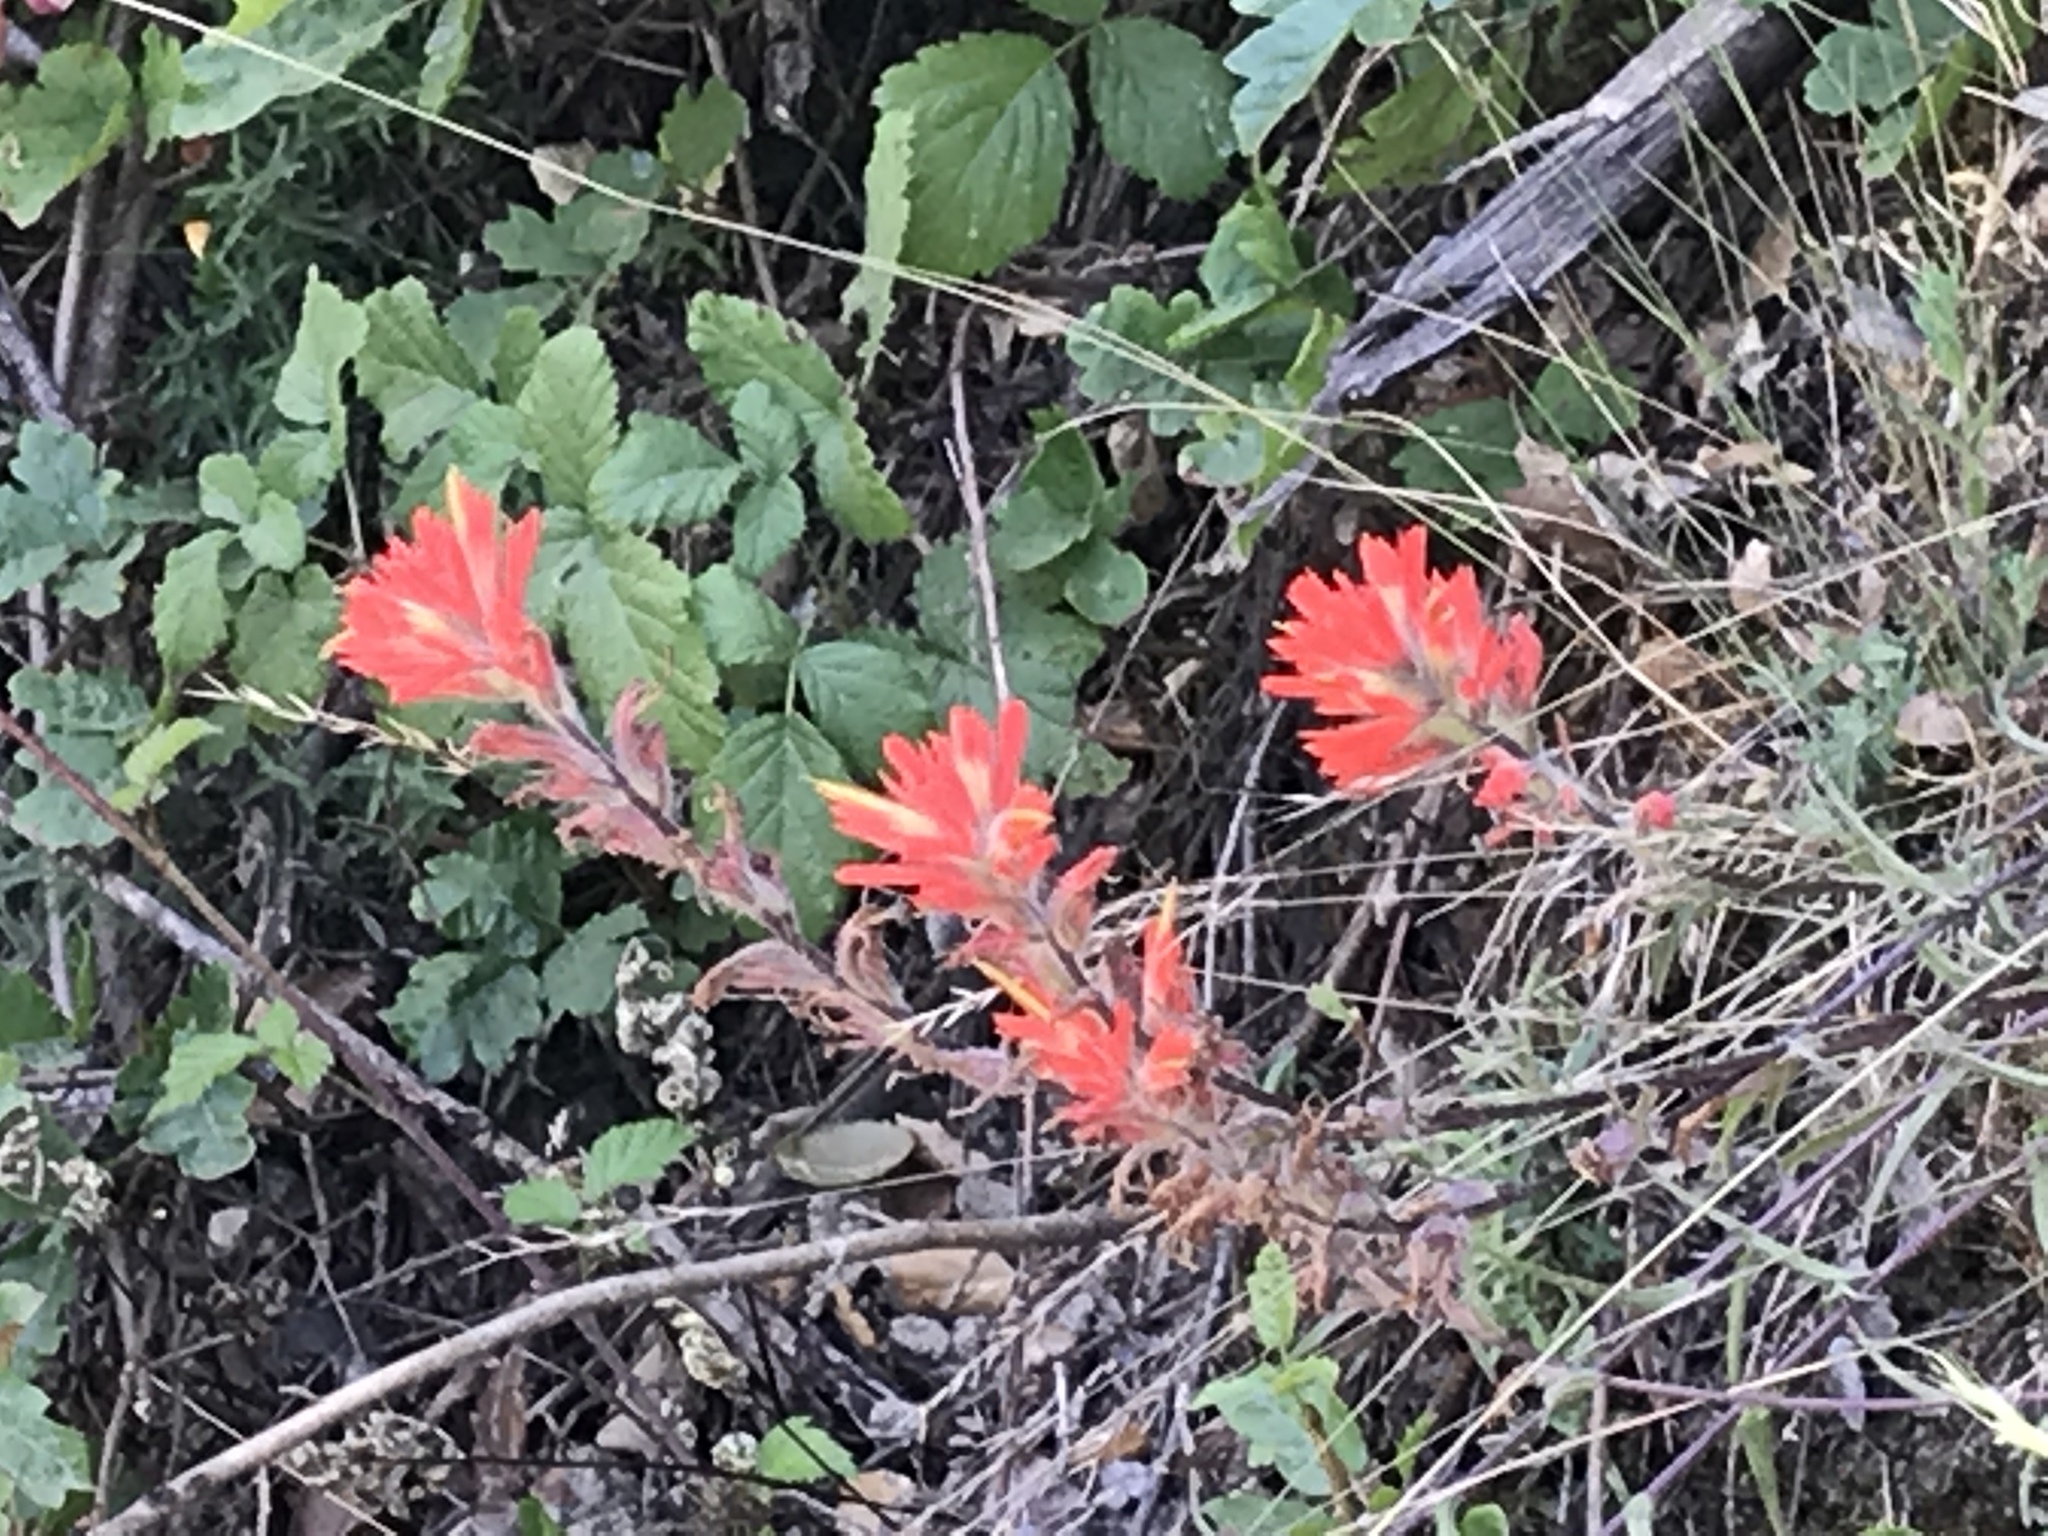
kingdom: Plantae
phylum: Tracheophyta
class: Magnoliopsida
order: Lamiales
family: Orobanchaceae
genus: Castilleja
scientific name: Castilleja affinis
